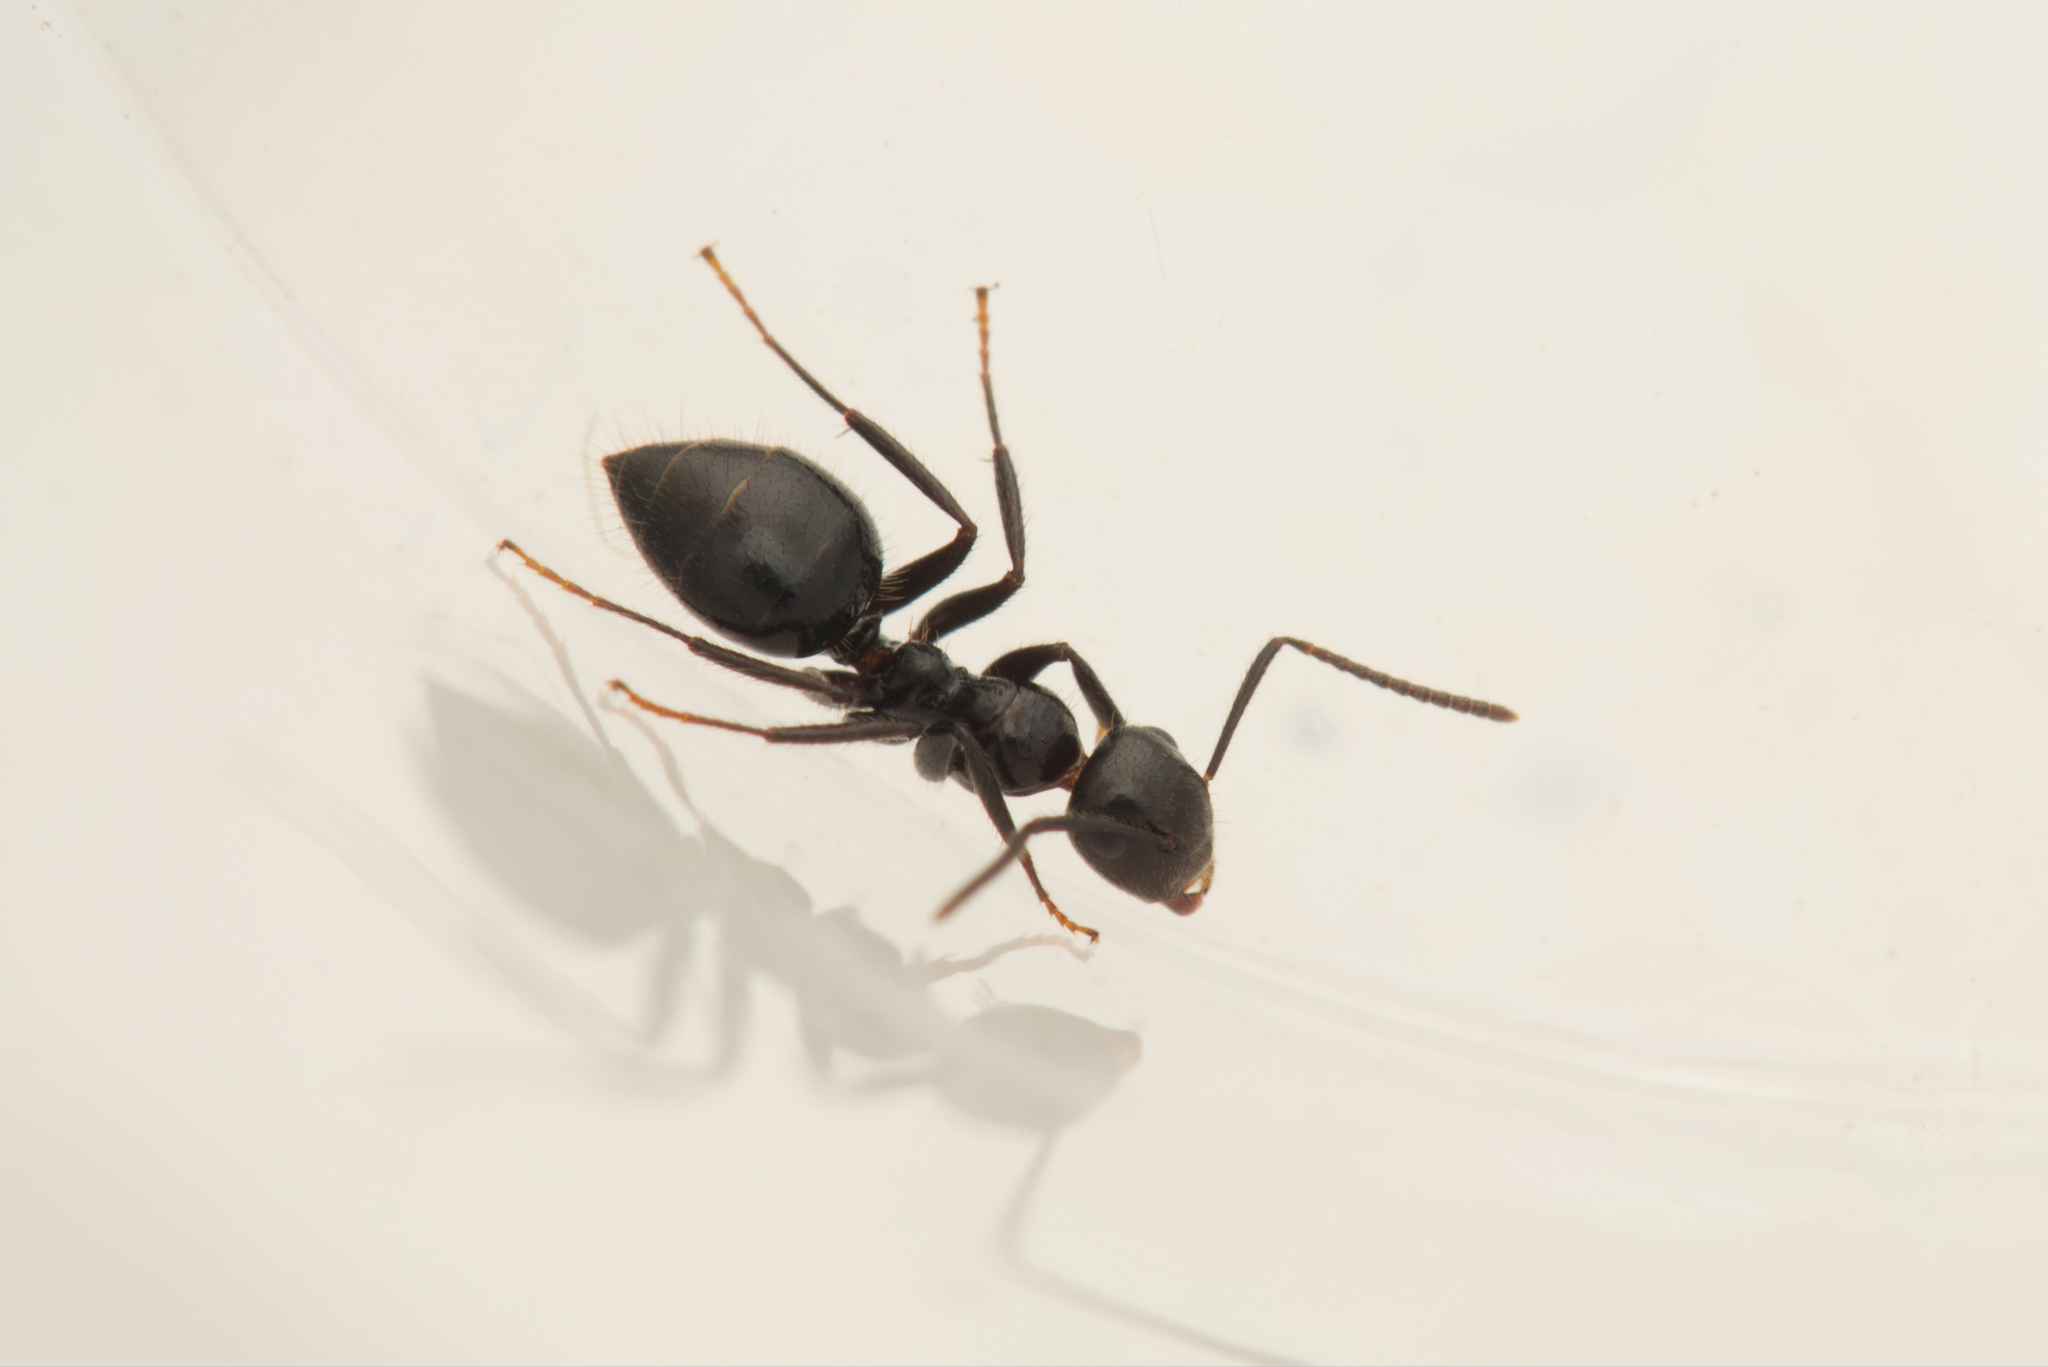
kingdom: Animalia
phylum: Arthropoda
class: Insecta
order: Hymenoptera
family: Formicidae
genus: Camponotus
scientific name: Camponotus vitreus
